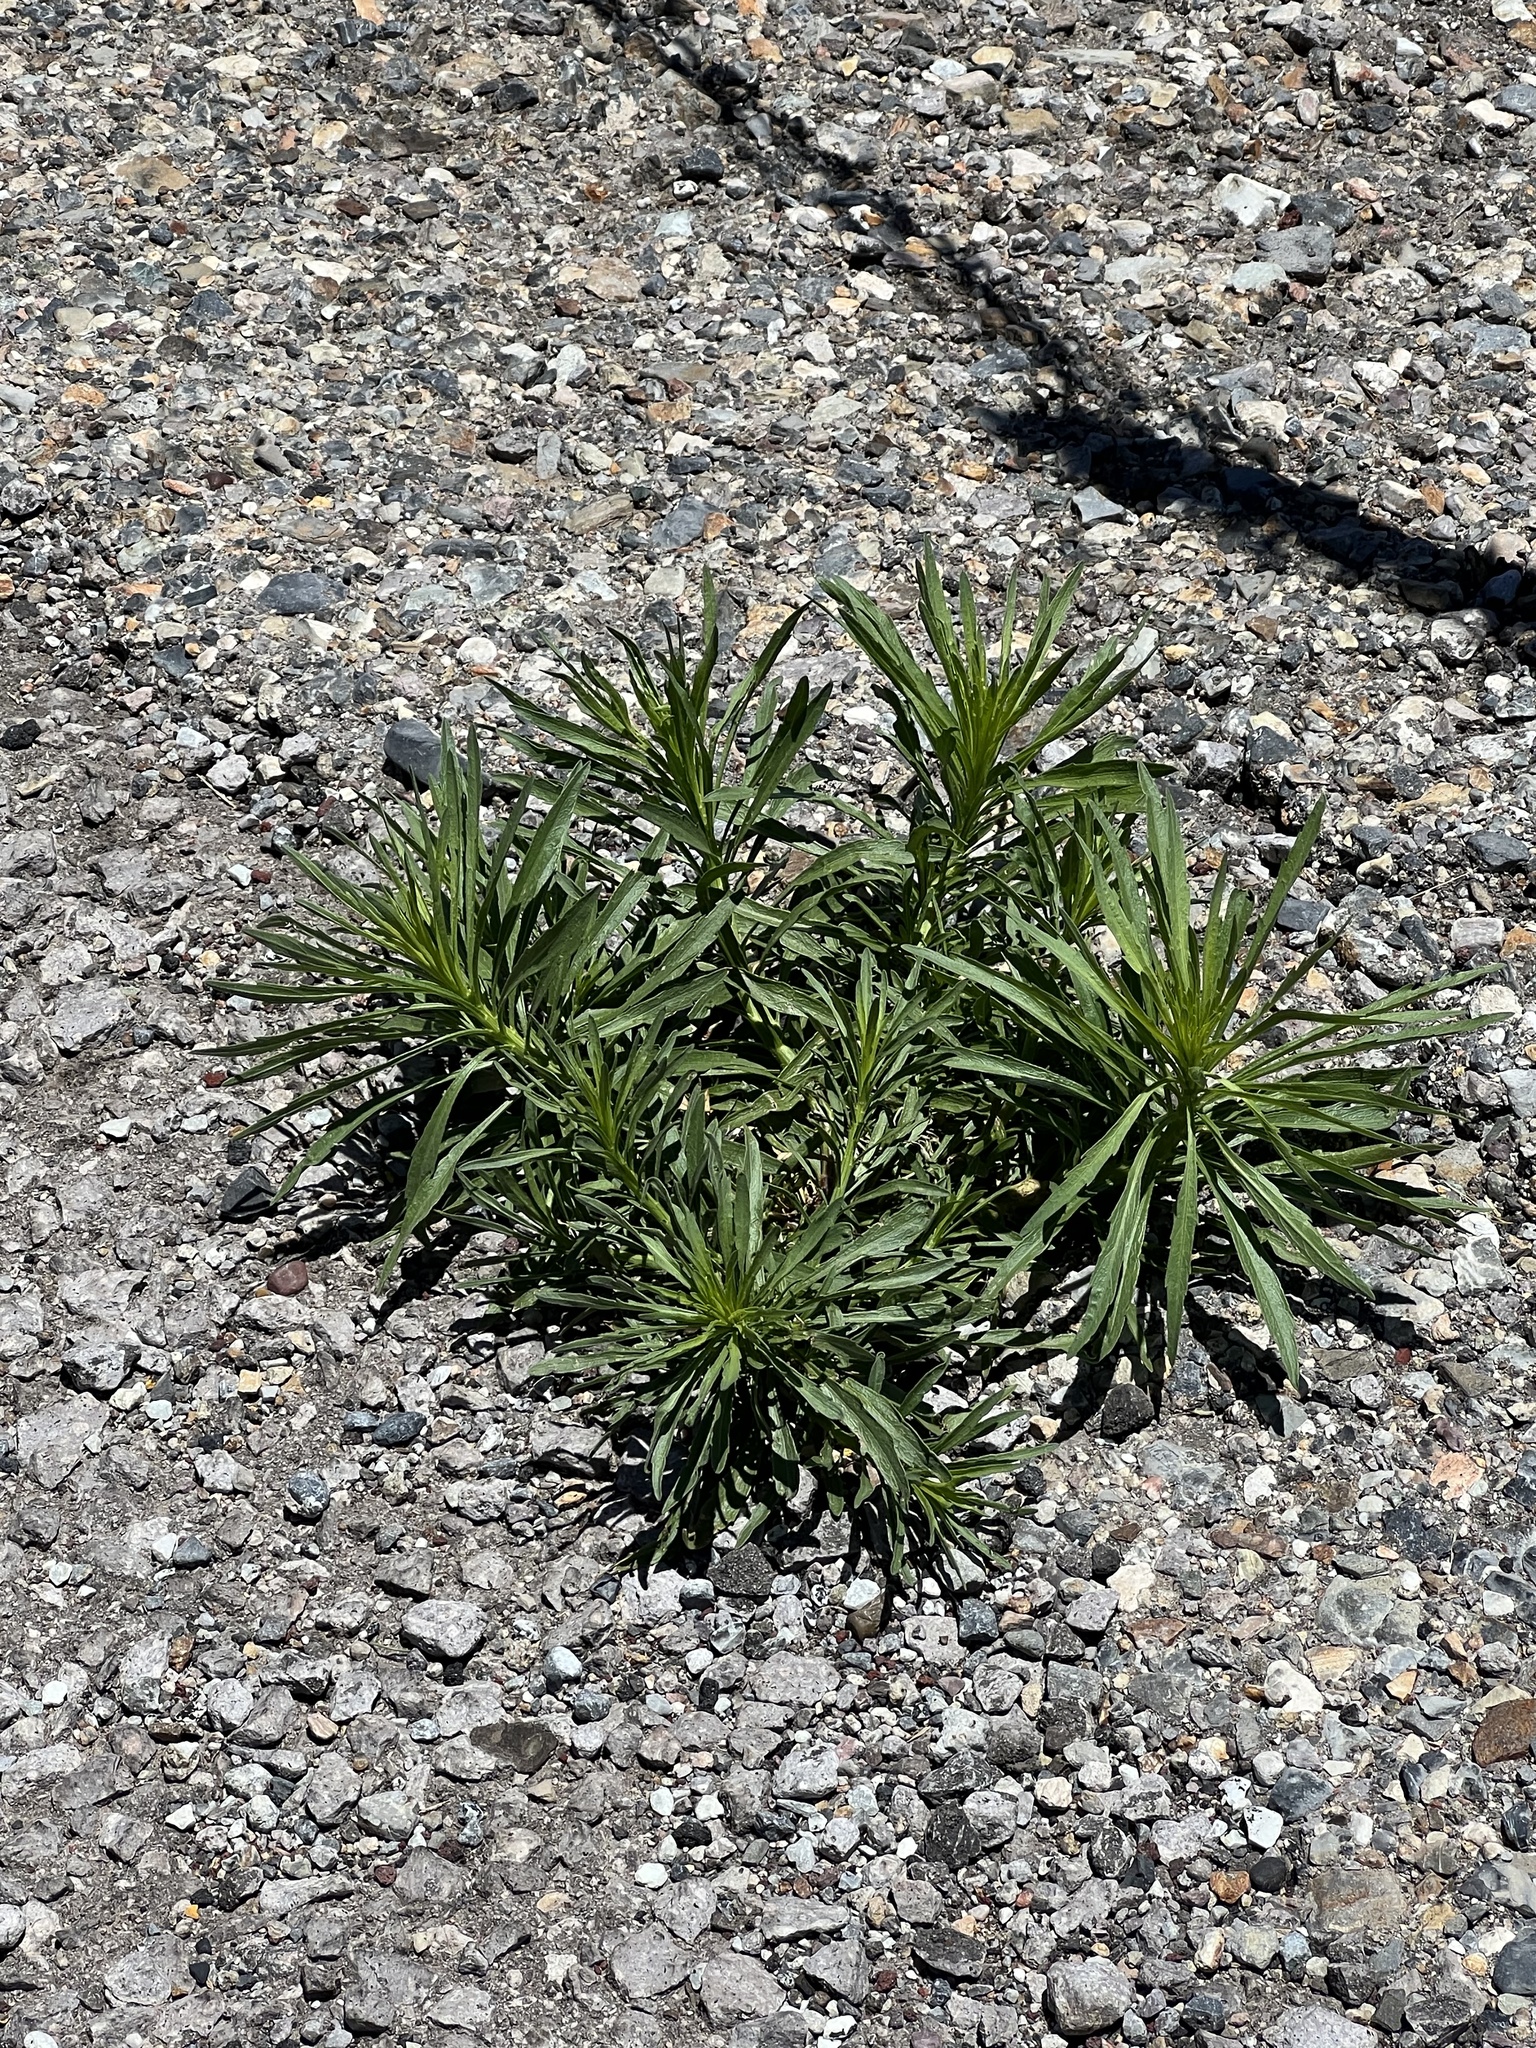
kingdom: Plantae
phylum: Tracheophyta
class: Magnoliopsida
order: Asterales
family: Asteraceae
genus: Erigeron
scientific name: Erigeron canadensis
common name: Canadian fleabane
